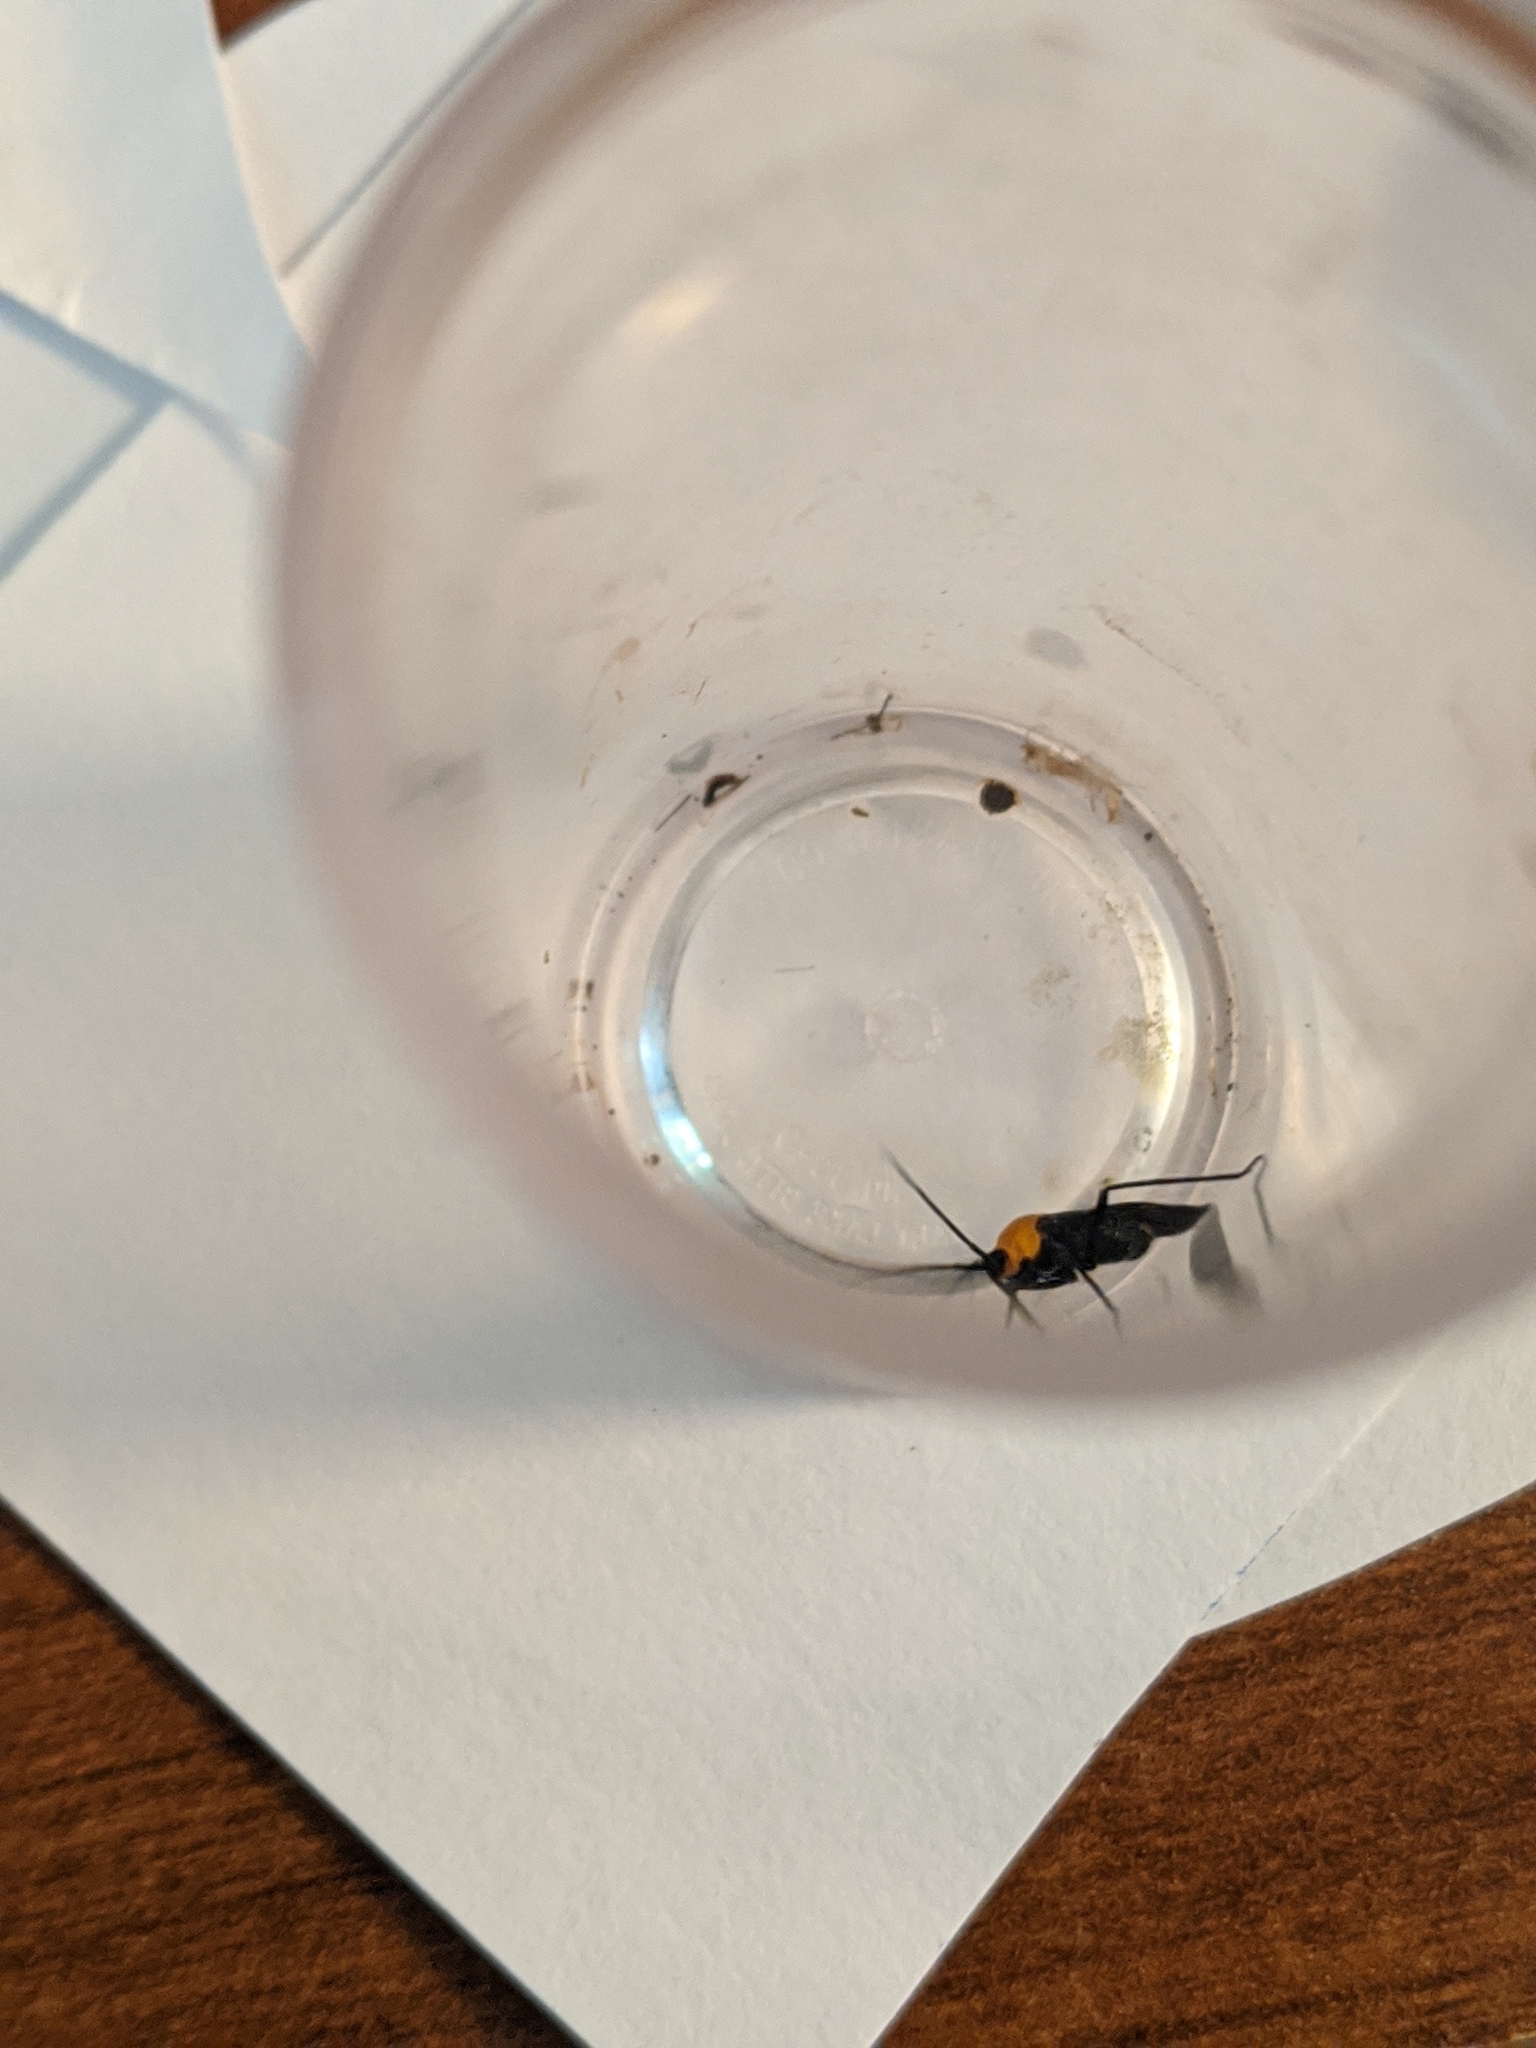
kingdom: Animalia
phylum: Arthropoda
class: Insecta
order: Hemiptera
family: Miridae
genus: Prepops
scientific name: Prepops insitivus
